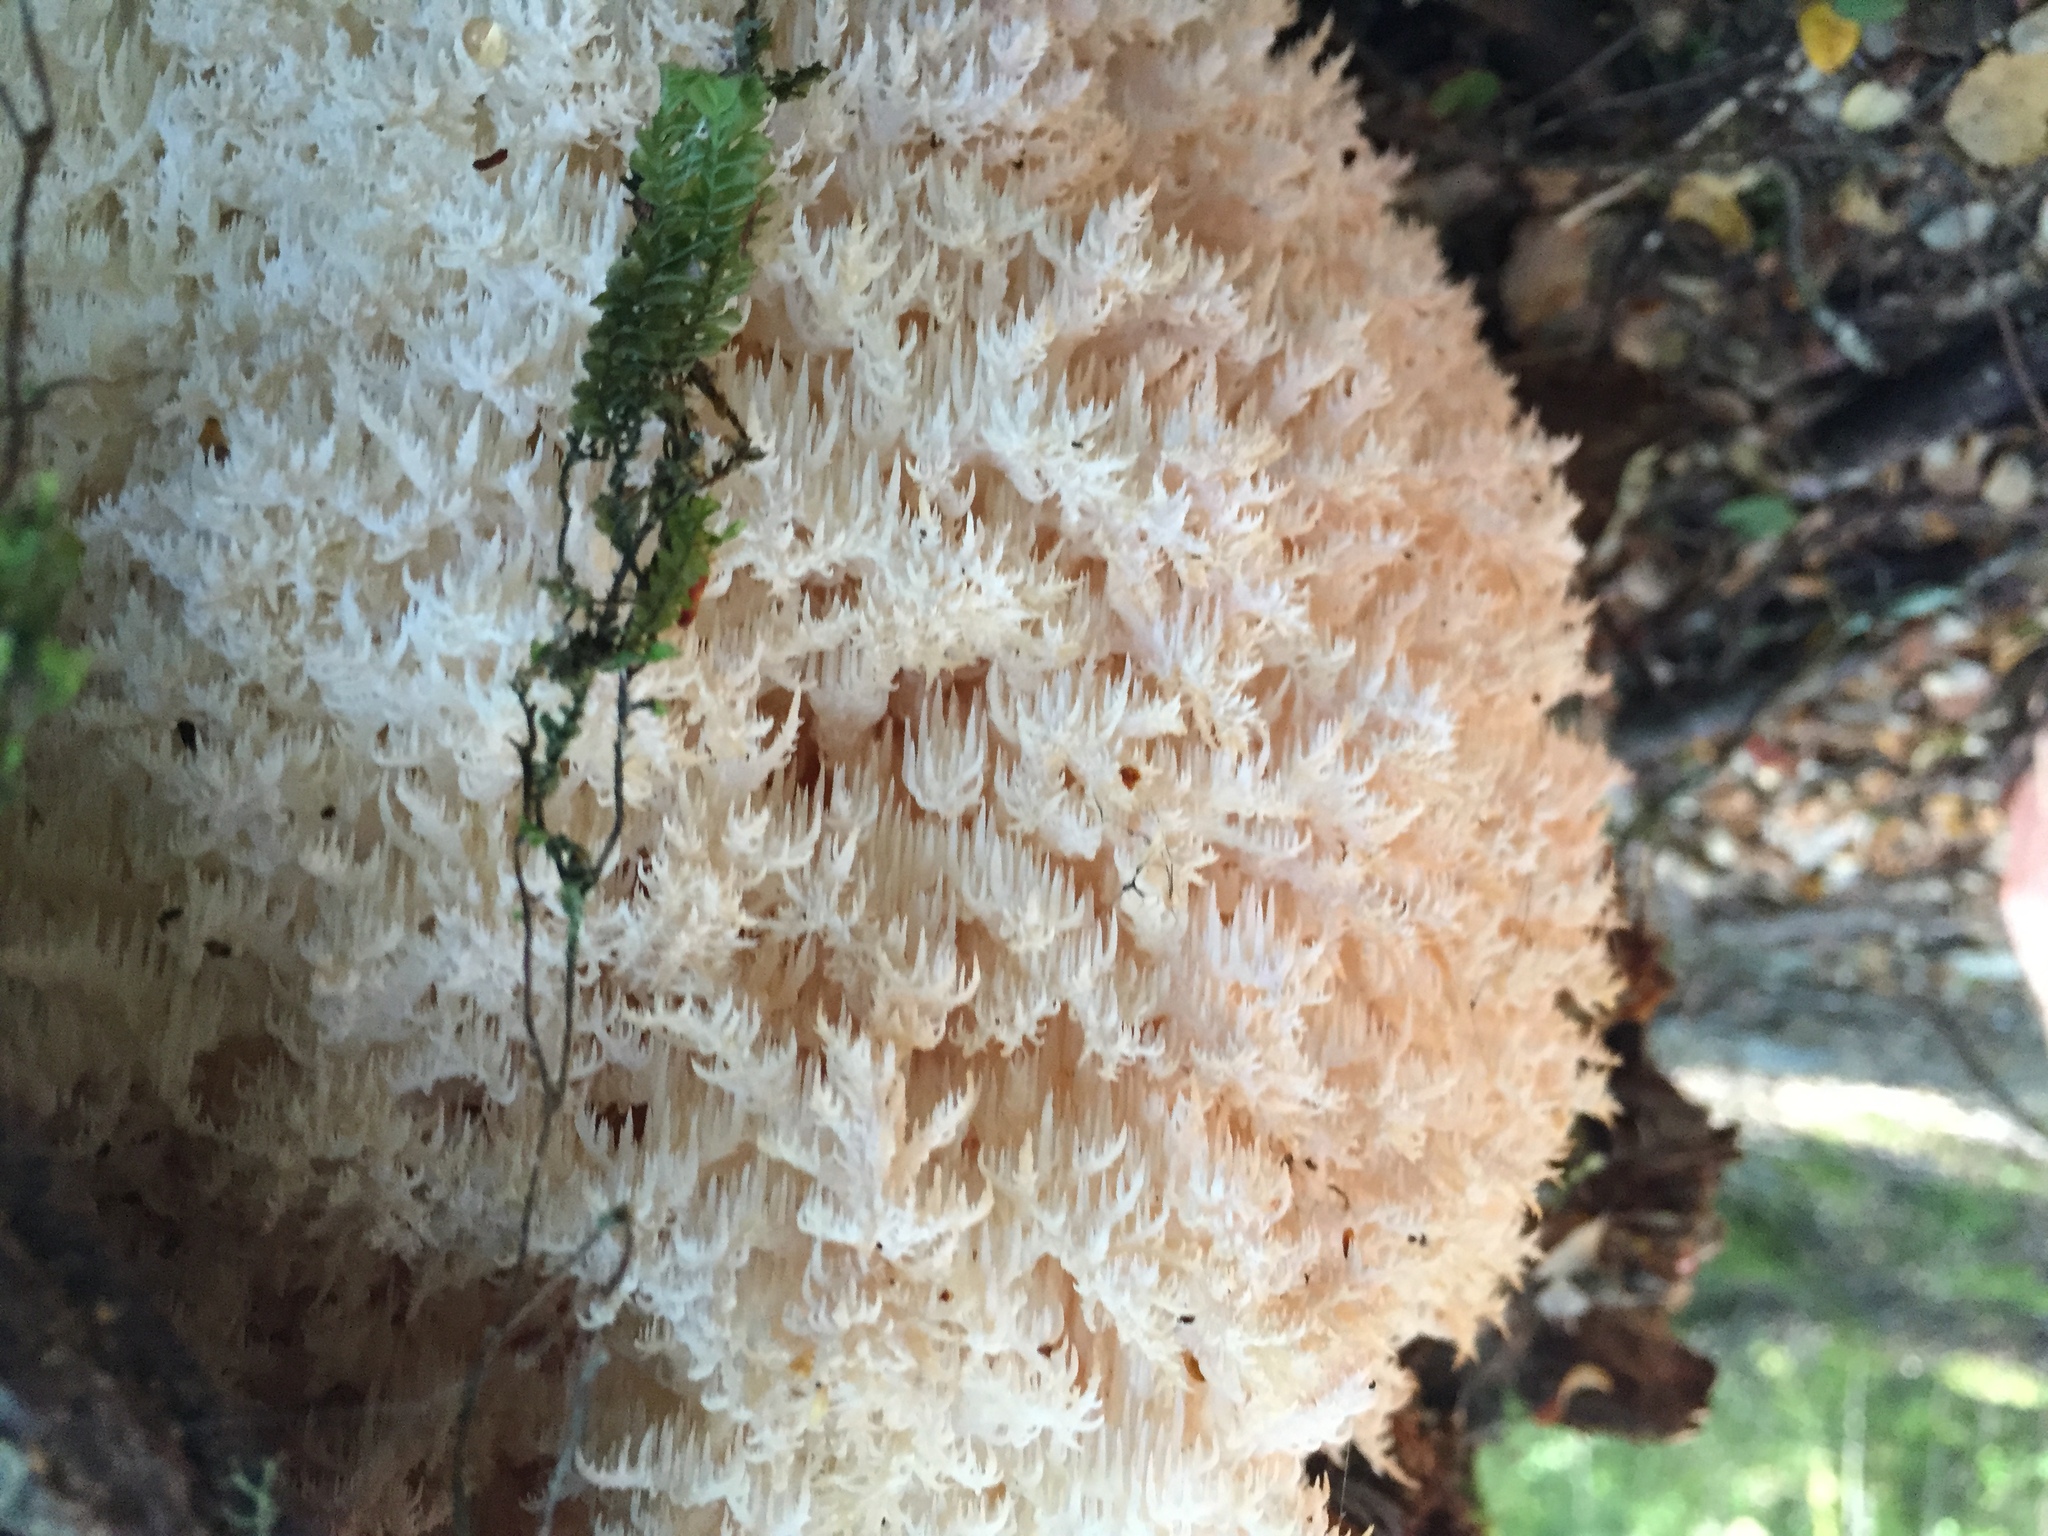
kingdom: Fungi
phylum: Basidiomycota
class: Agaricomycetes
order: Russulales
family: Hericiaceae
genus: Hericium
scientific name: Hericium novae-zealandiae
